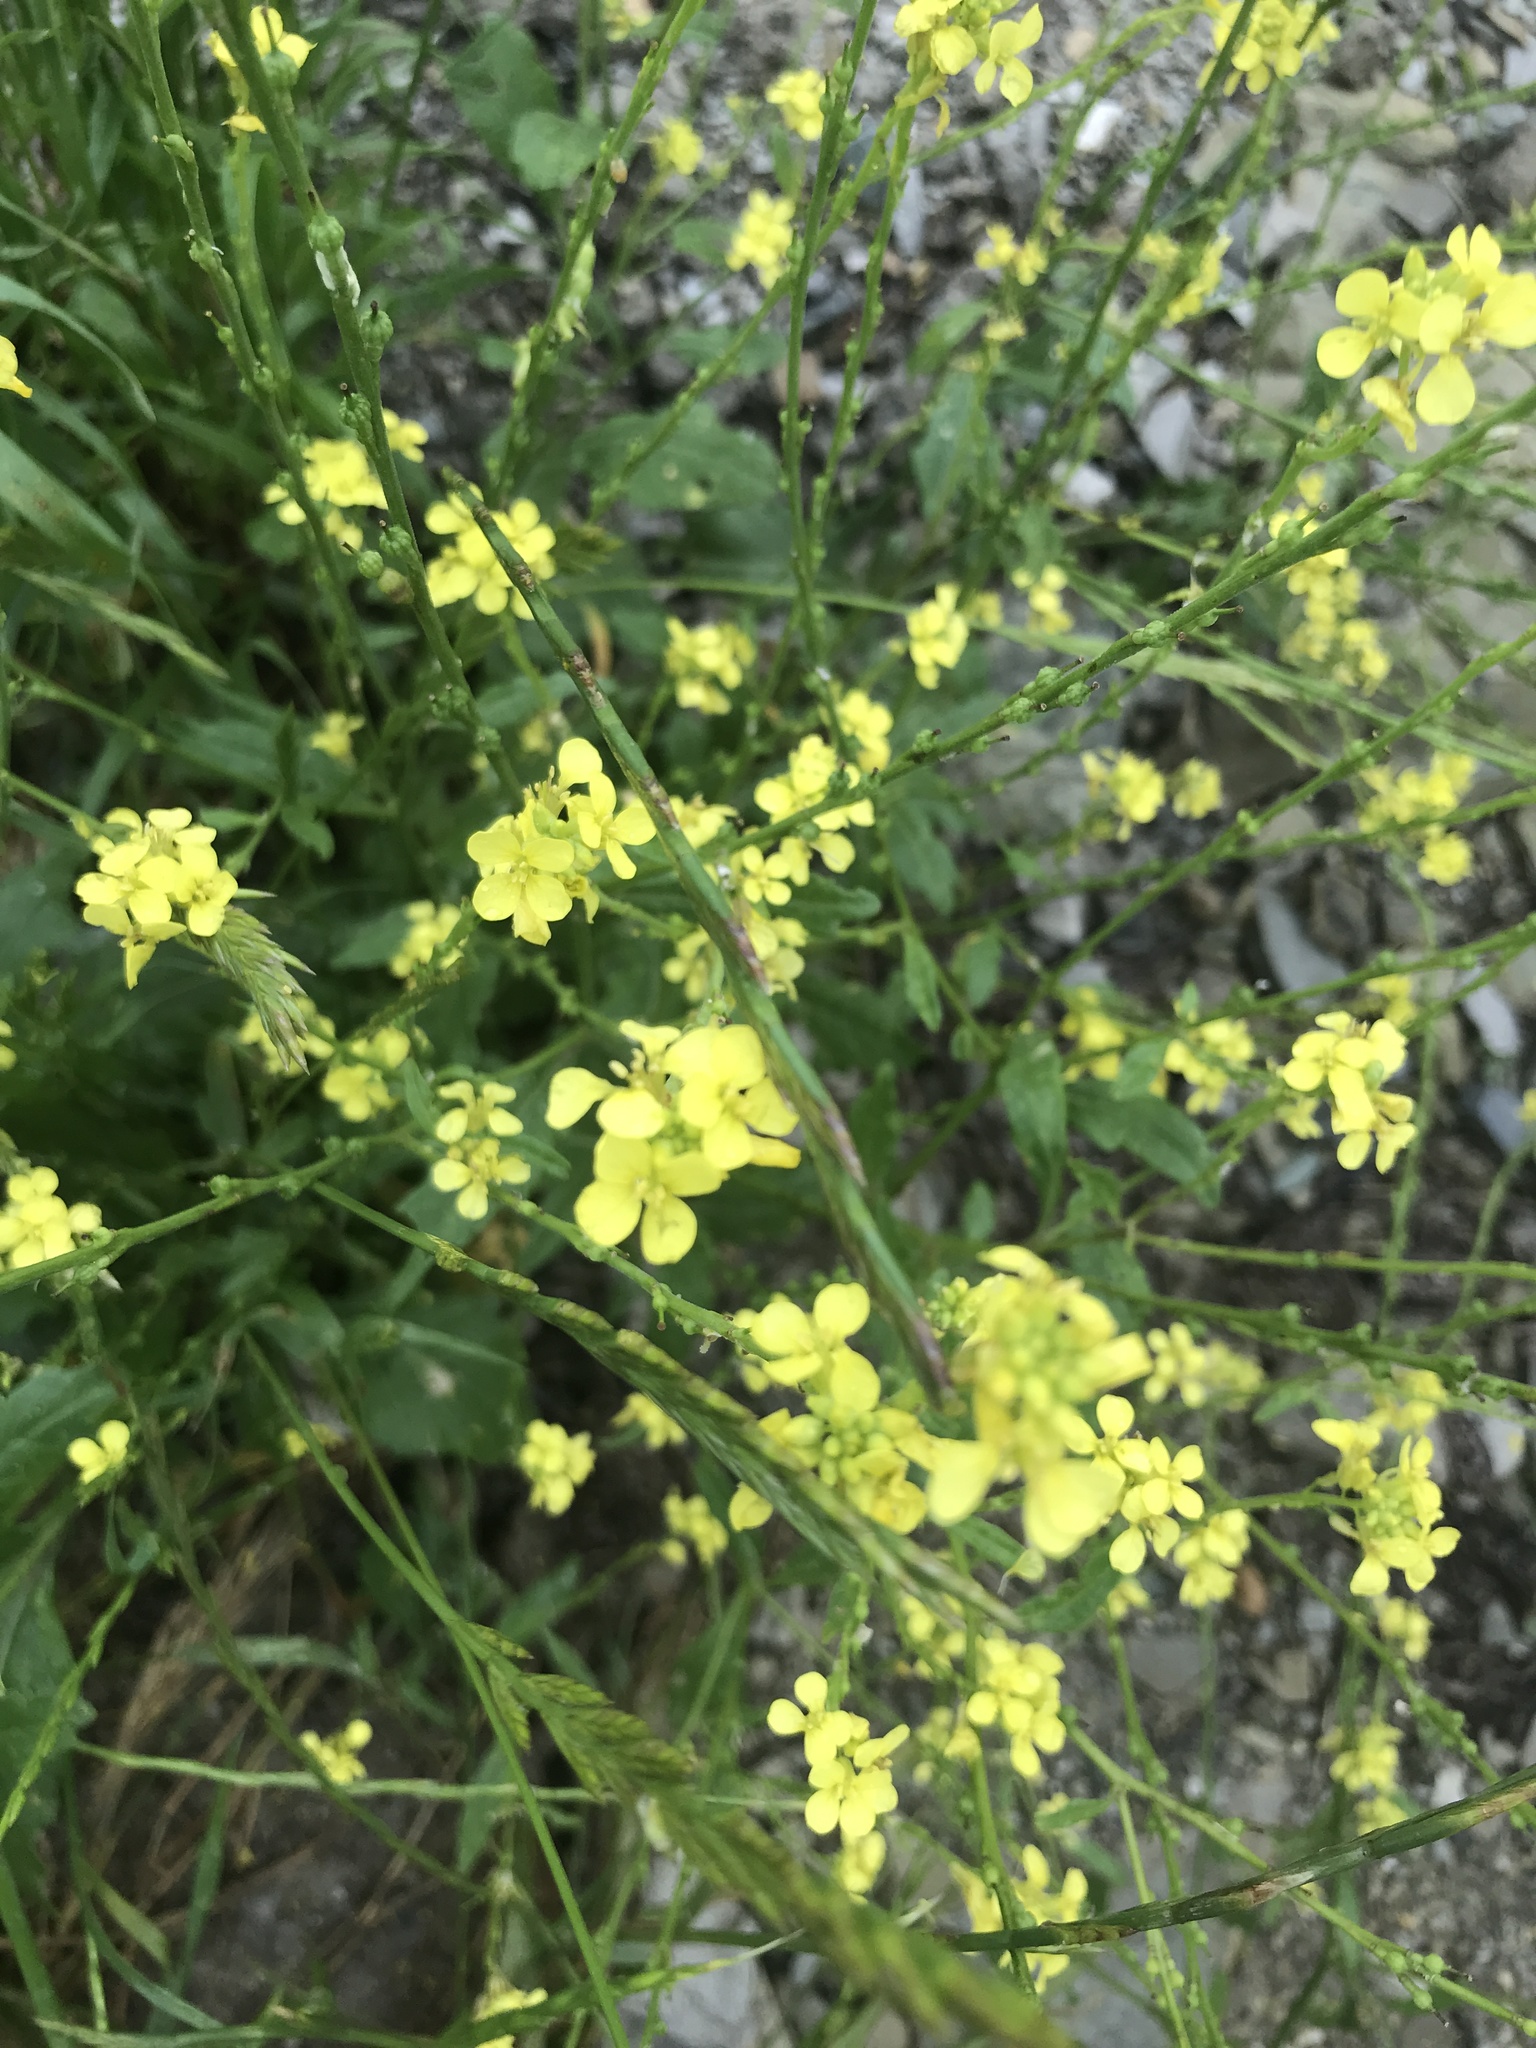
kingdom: Plantae
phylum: Tracheophyta
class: Magnoliopsida
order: Brassicales
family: Brassicaceae
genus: Rapistrum
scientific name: Rapistrum rugosum
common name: Annual bastardcabbage
